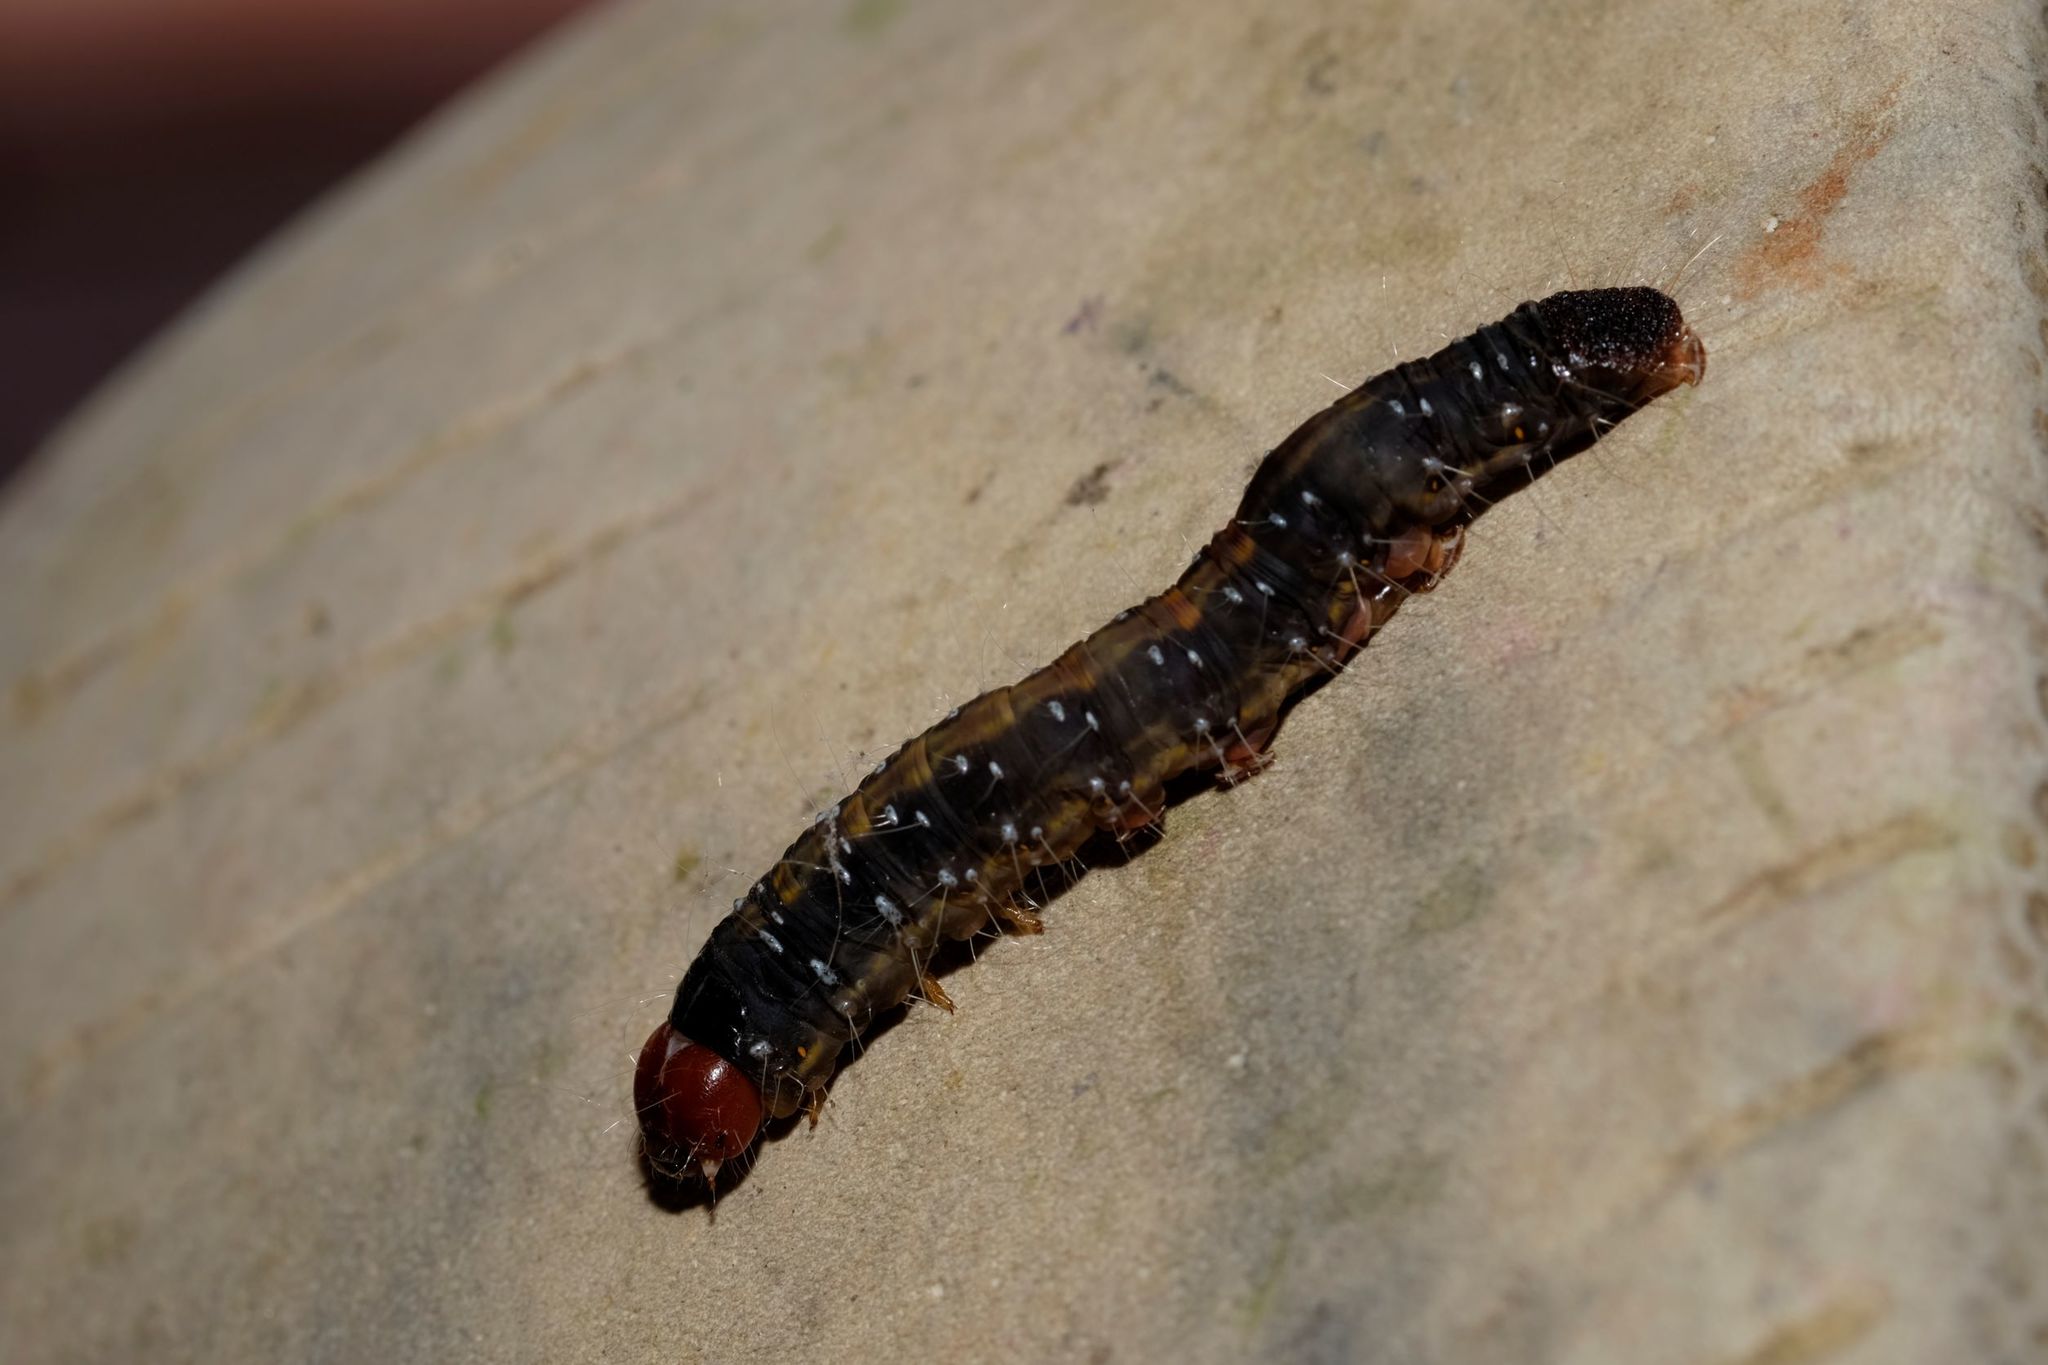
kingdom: Animalia
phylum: Arthropoda
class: Insecta
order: Lepidoptera
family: Oenosandridae
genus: Oenosandra
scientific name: Oenosandra boisduvalii
